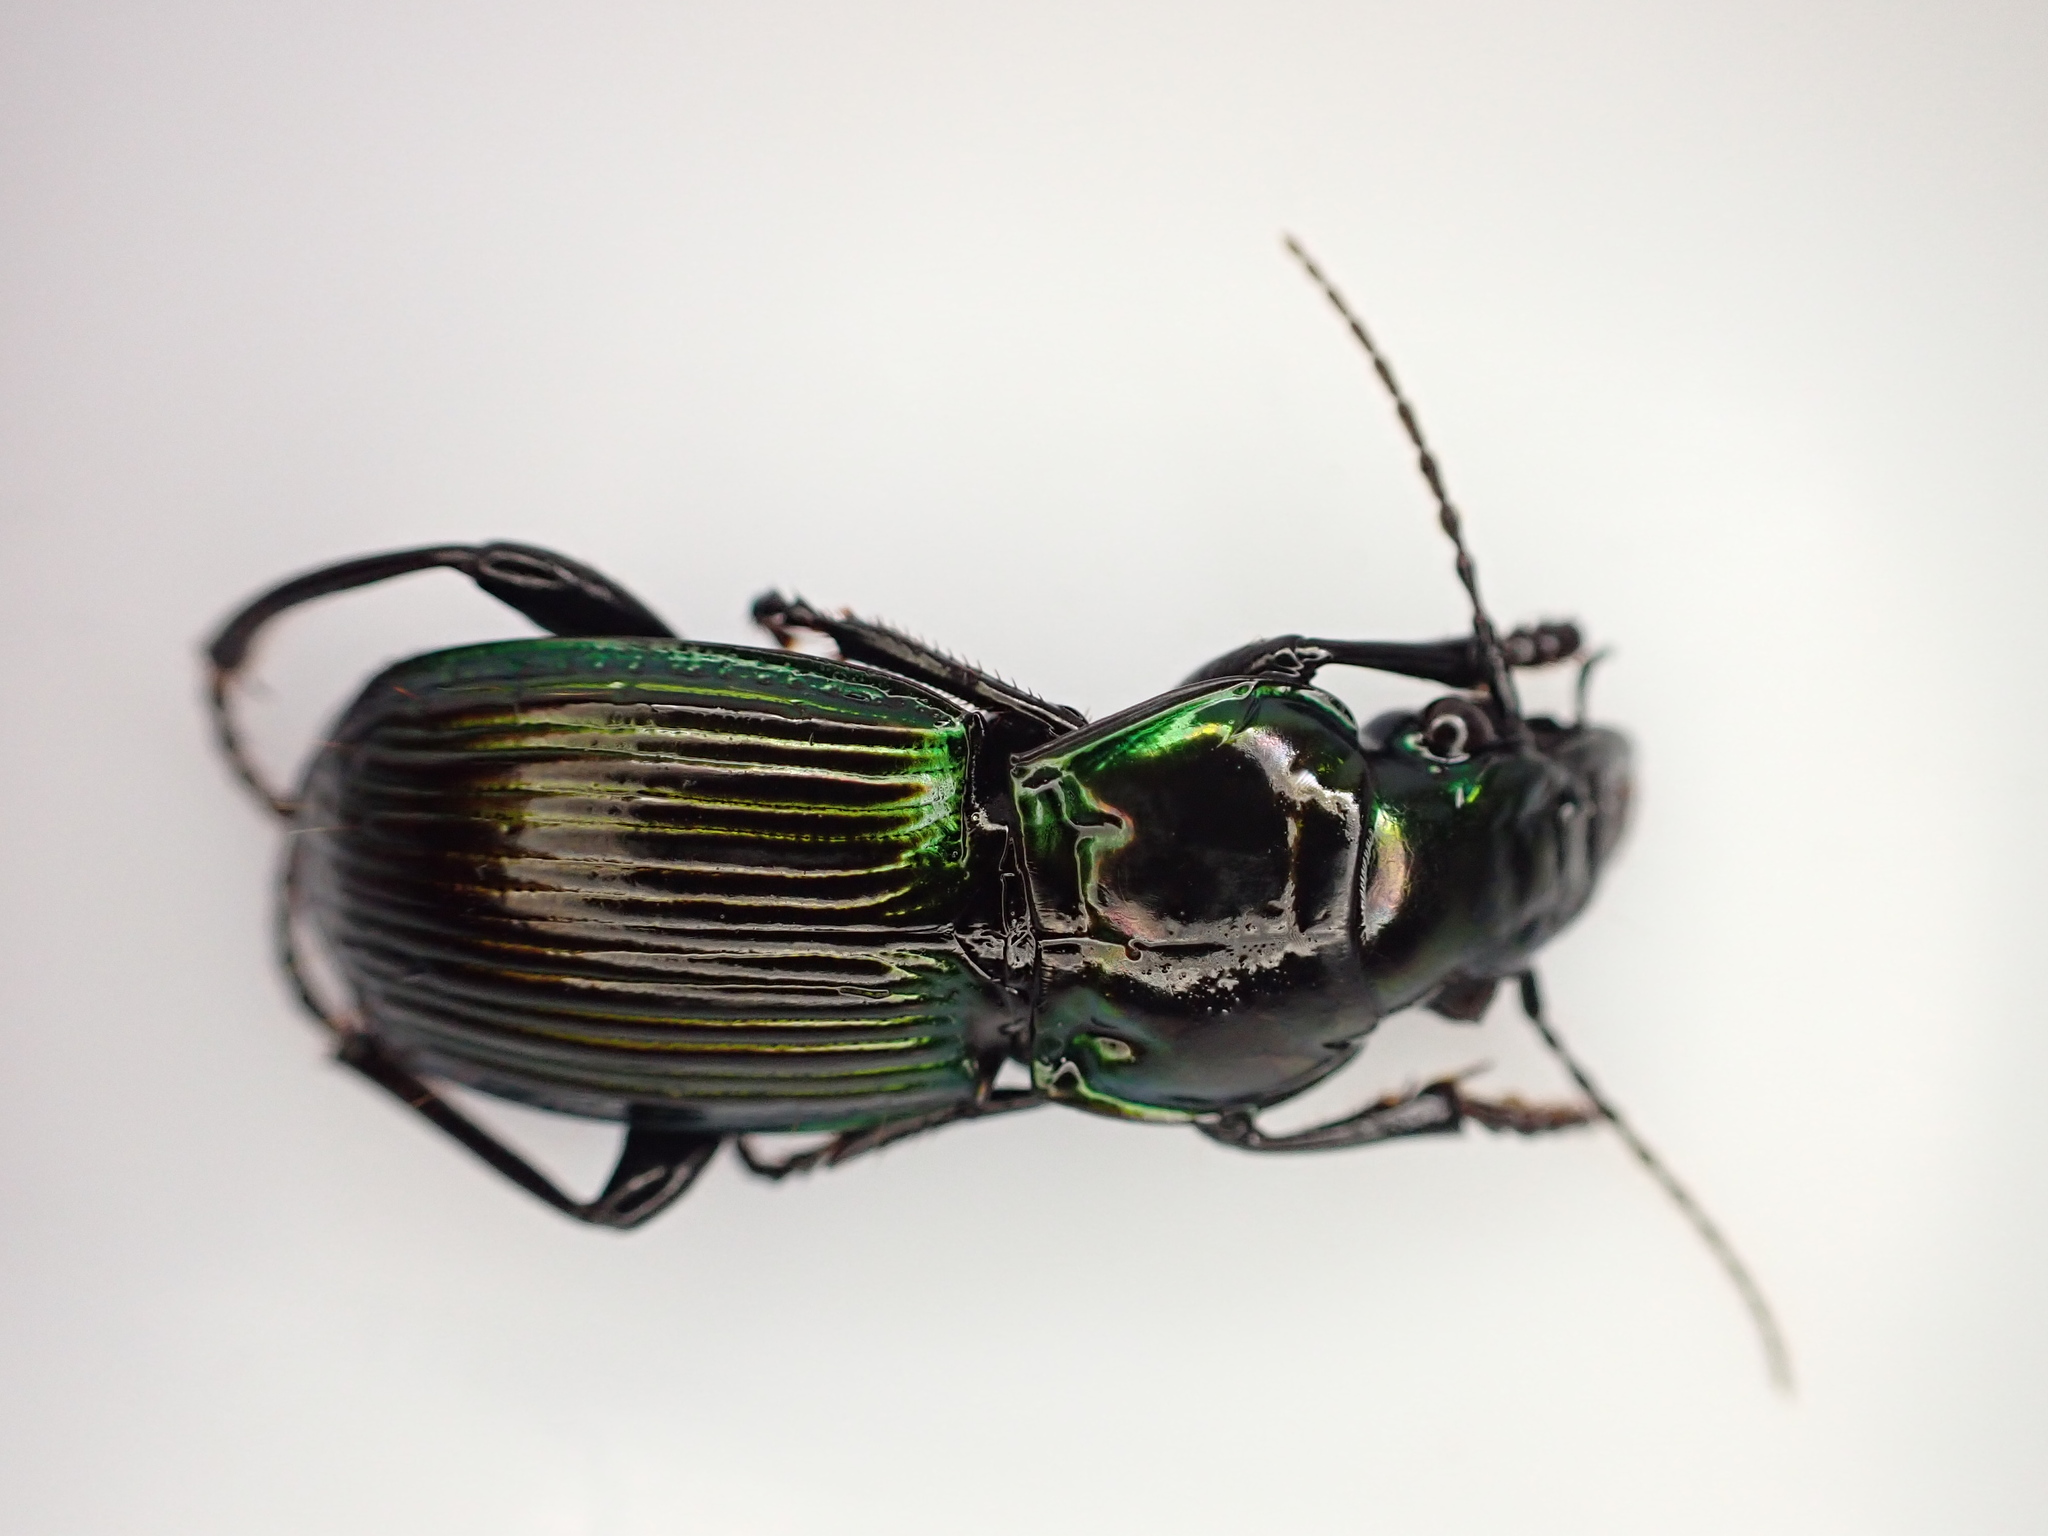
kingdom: Animalia
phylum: Arthropoda
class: Insecta
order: Coleoptera
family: Carabidae
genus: Megadromus
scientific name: Megadromus antarcticus
